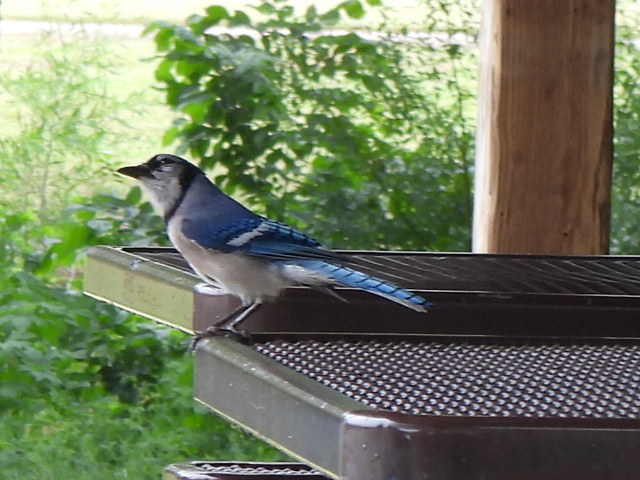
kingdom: Animalia
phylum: Chordata
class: Aves
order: Passeriformes
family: Corvidae
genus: Cyanocitta
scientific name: Cyanocitta cristata
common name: Blue jay
